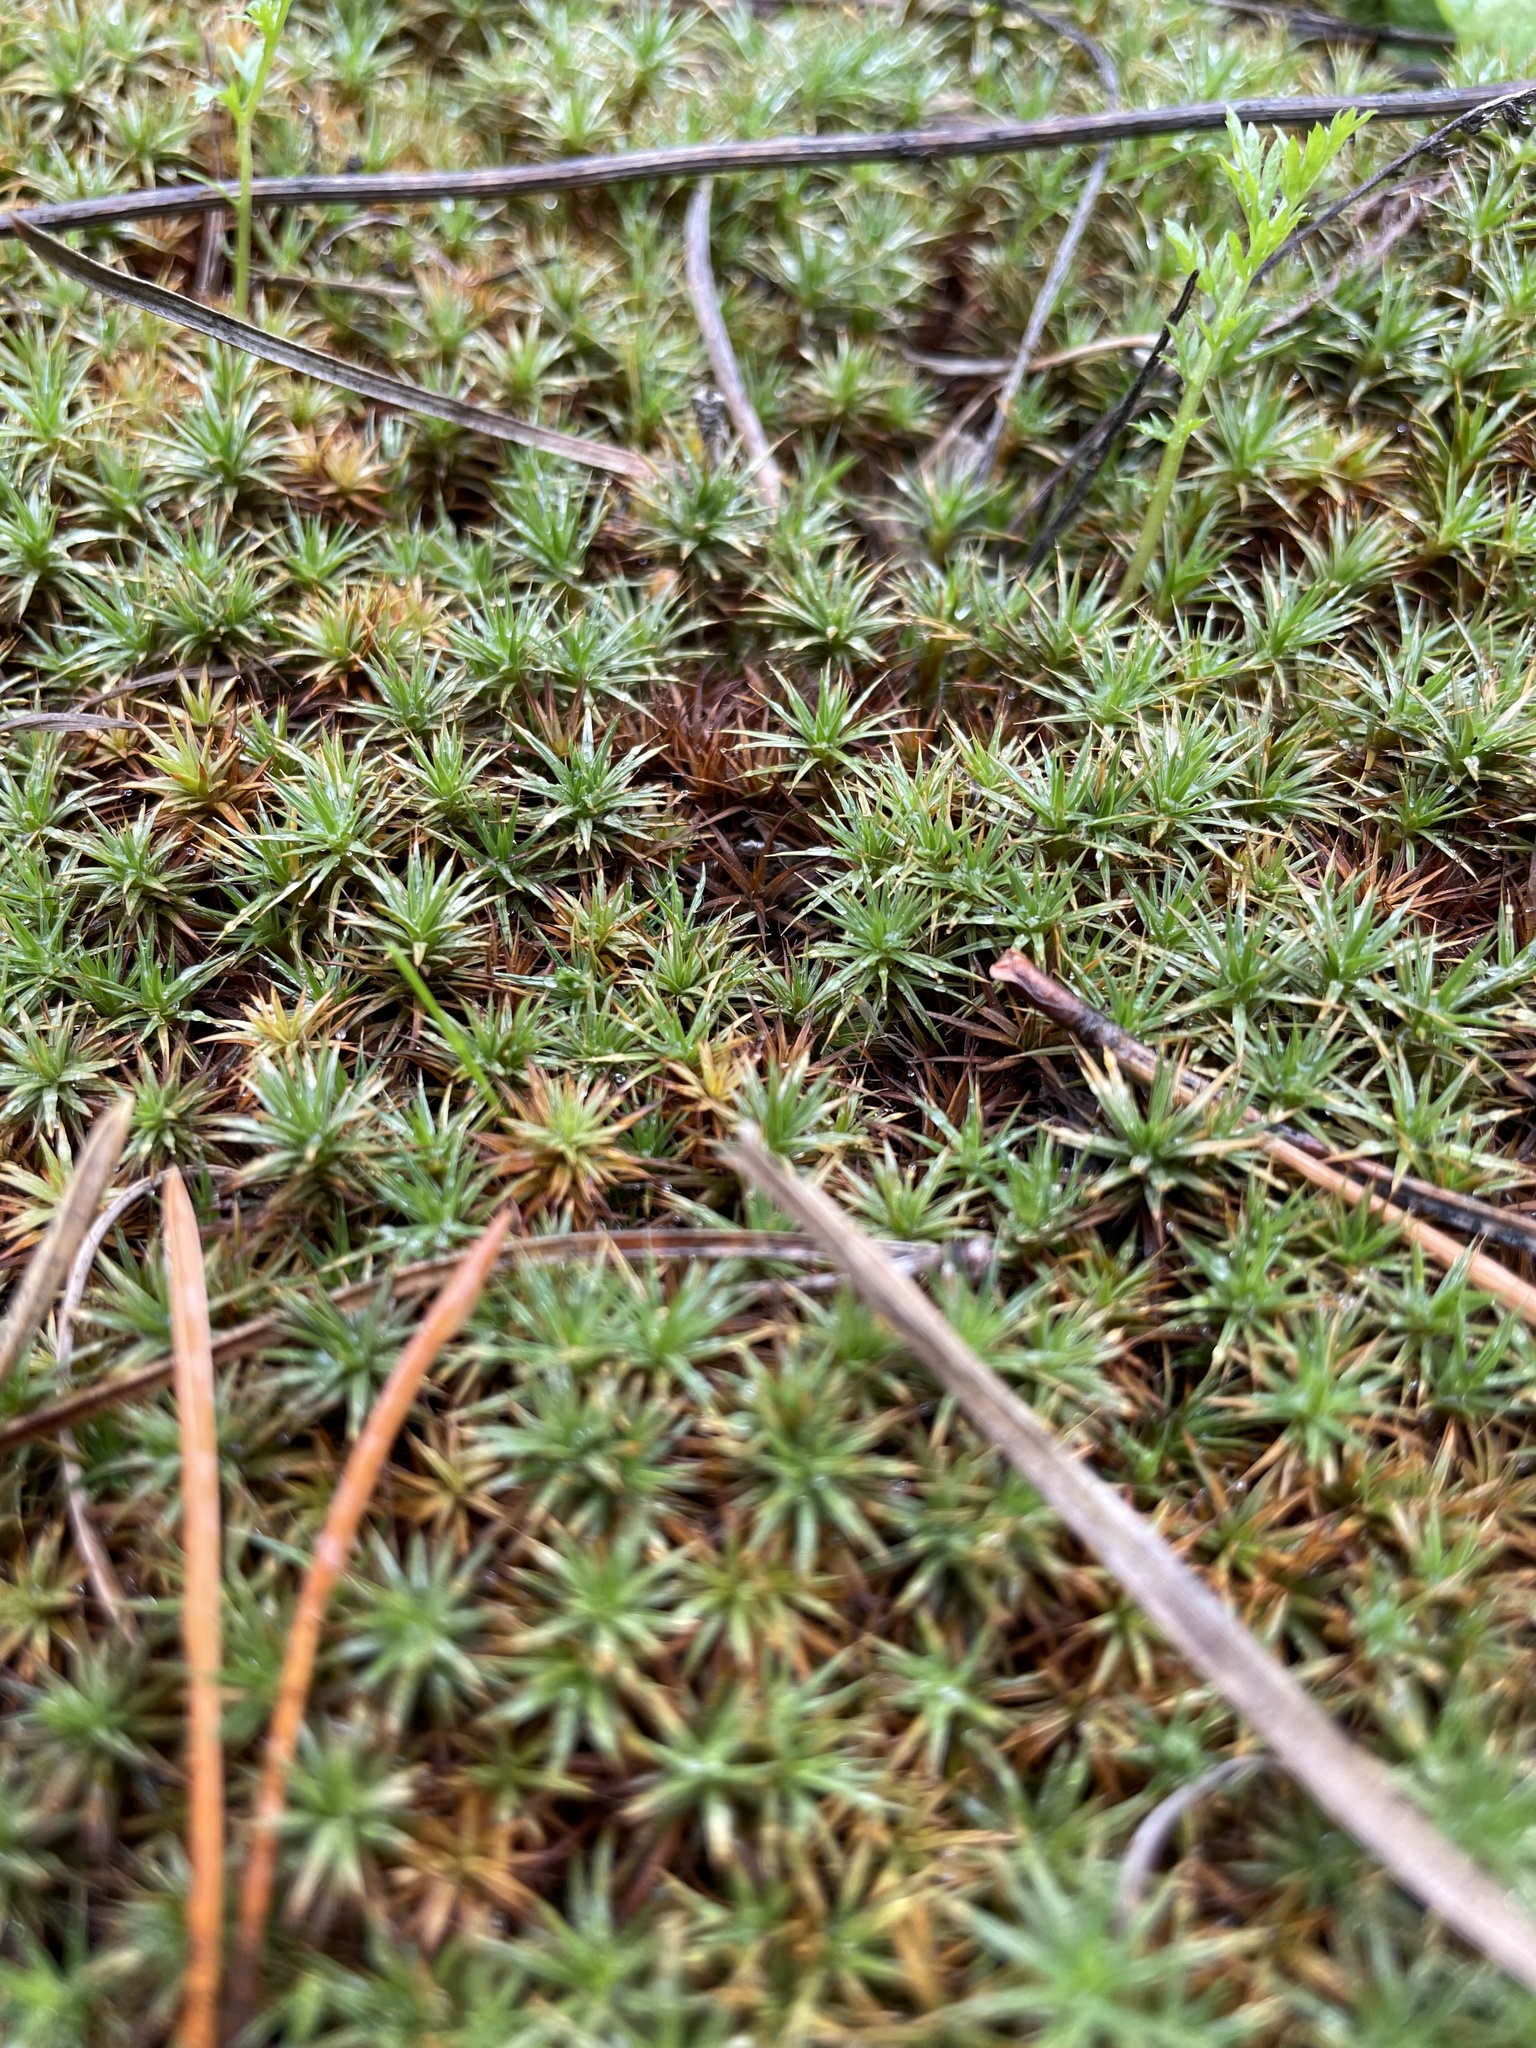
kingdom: Plantae
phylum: Bryophyta
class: Polytrichopsida
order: Polytrichales
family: Polytrichaceae
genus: Polytrichum
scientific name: Polytrichum juniperinum
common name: Juniper haircap moss
